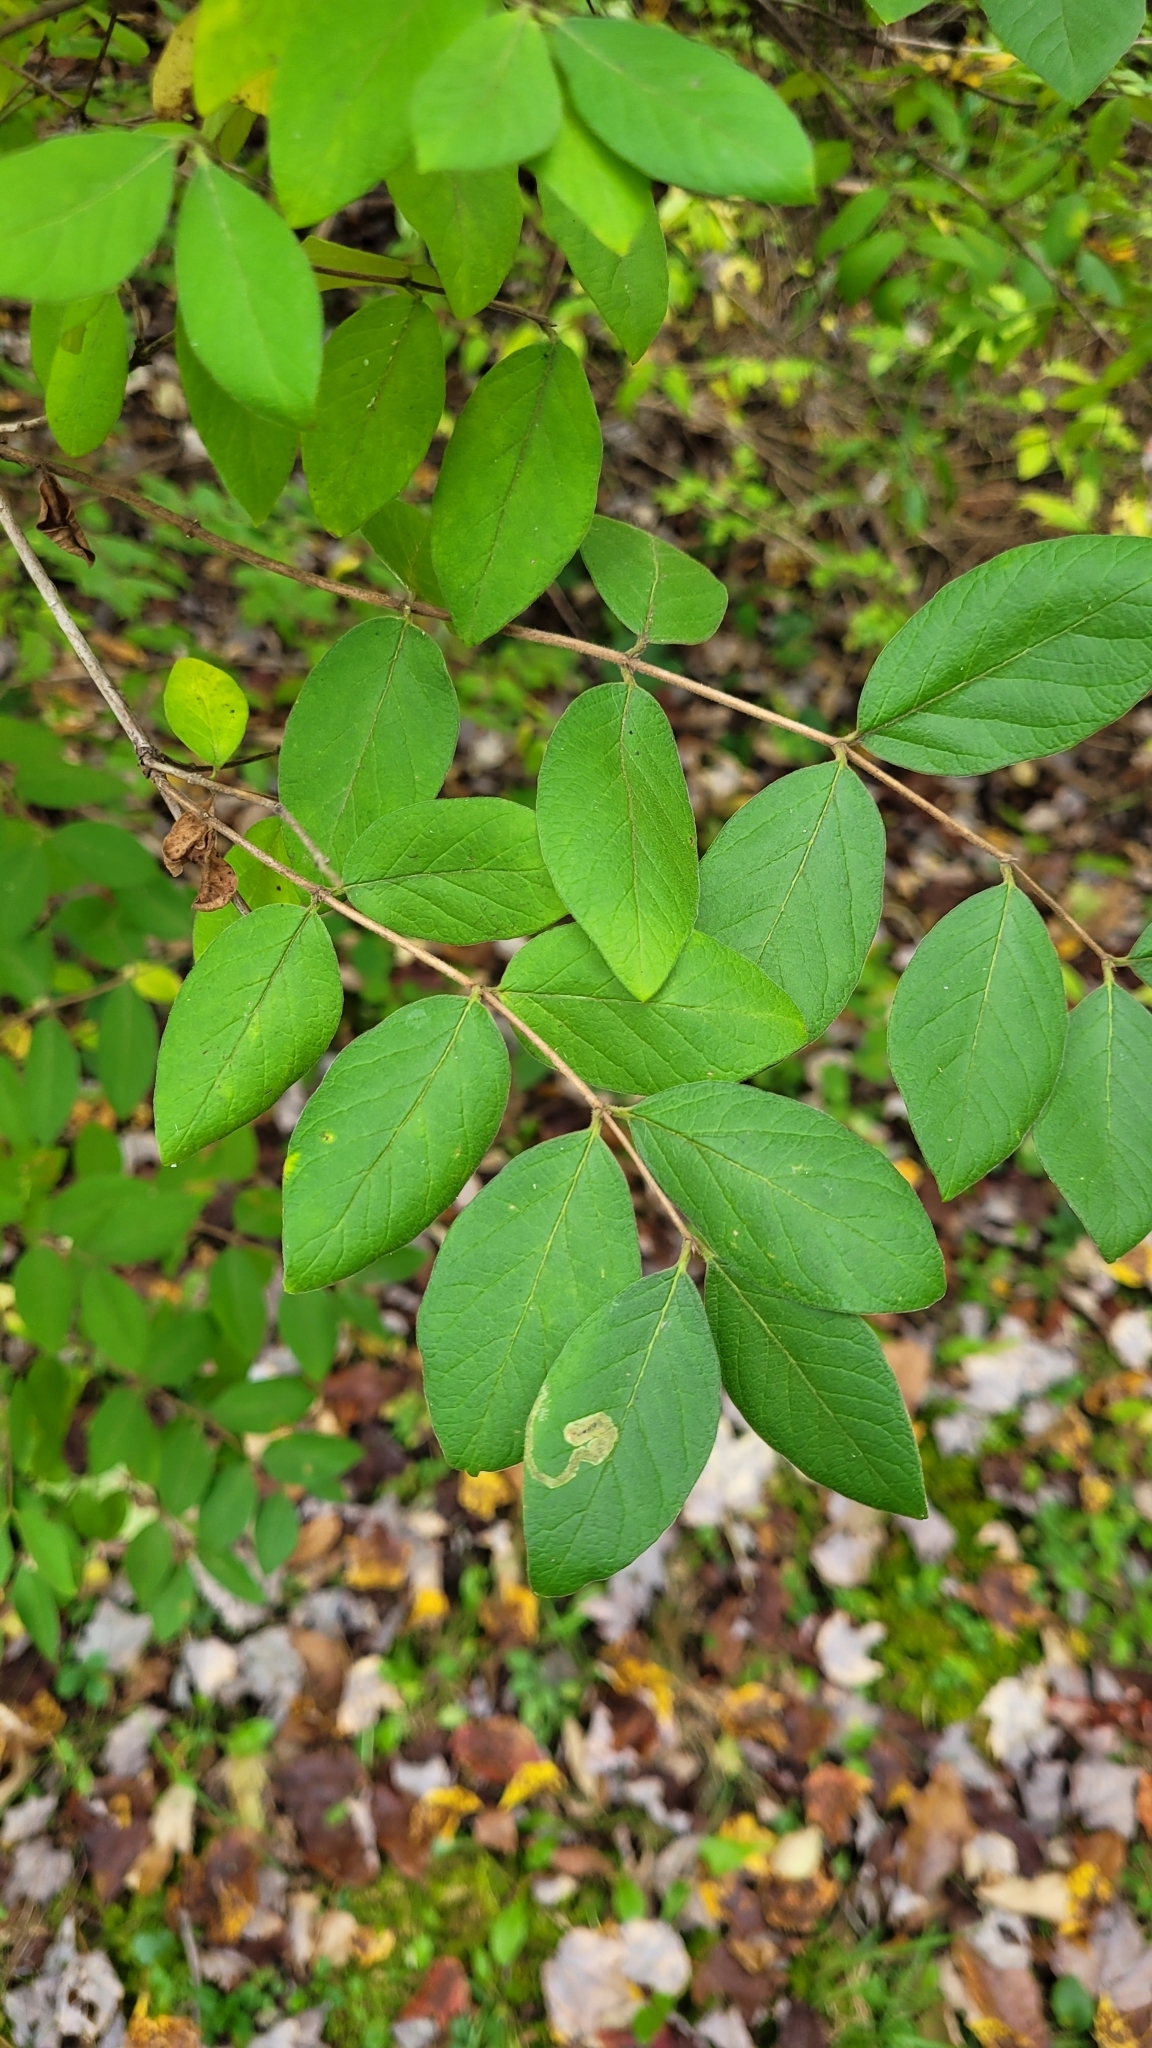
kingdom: Plantae
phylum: Tracheophyta
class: Magnoliopsida
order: Dipsacales
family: Caprifoliaceae
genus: Lonicera
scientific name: Lonicera morrowii
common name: Morrow's honeysuckle
